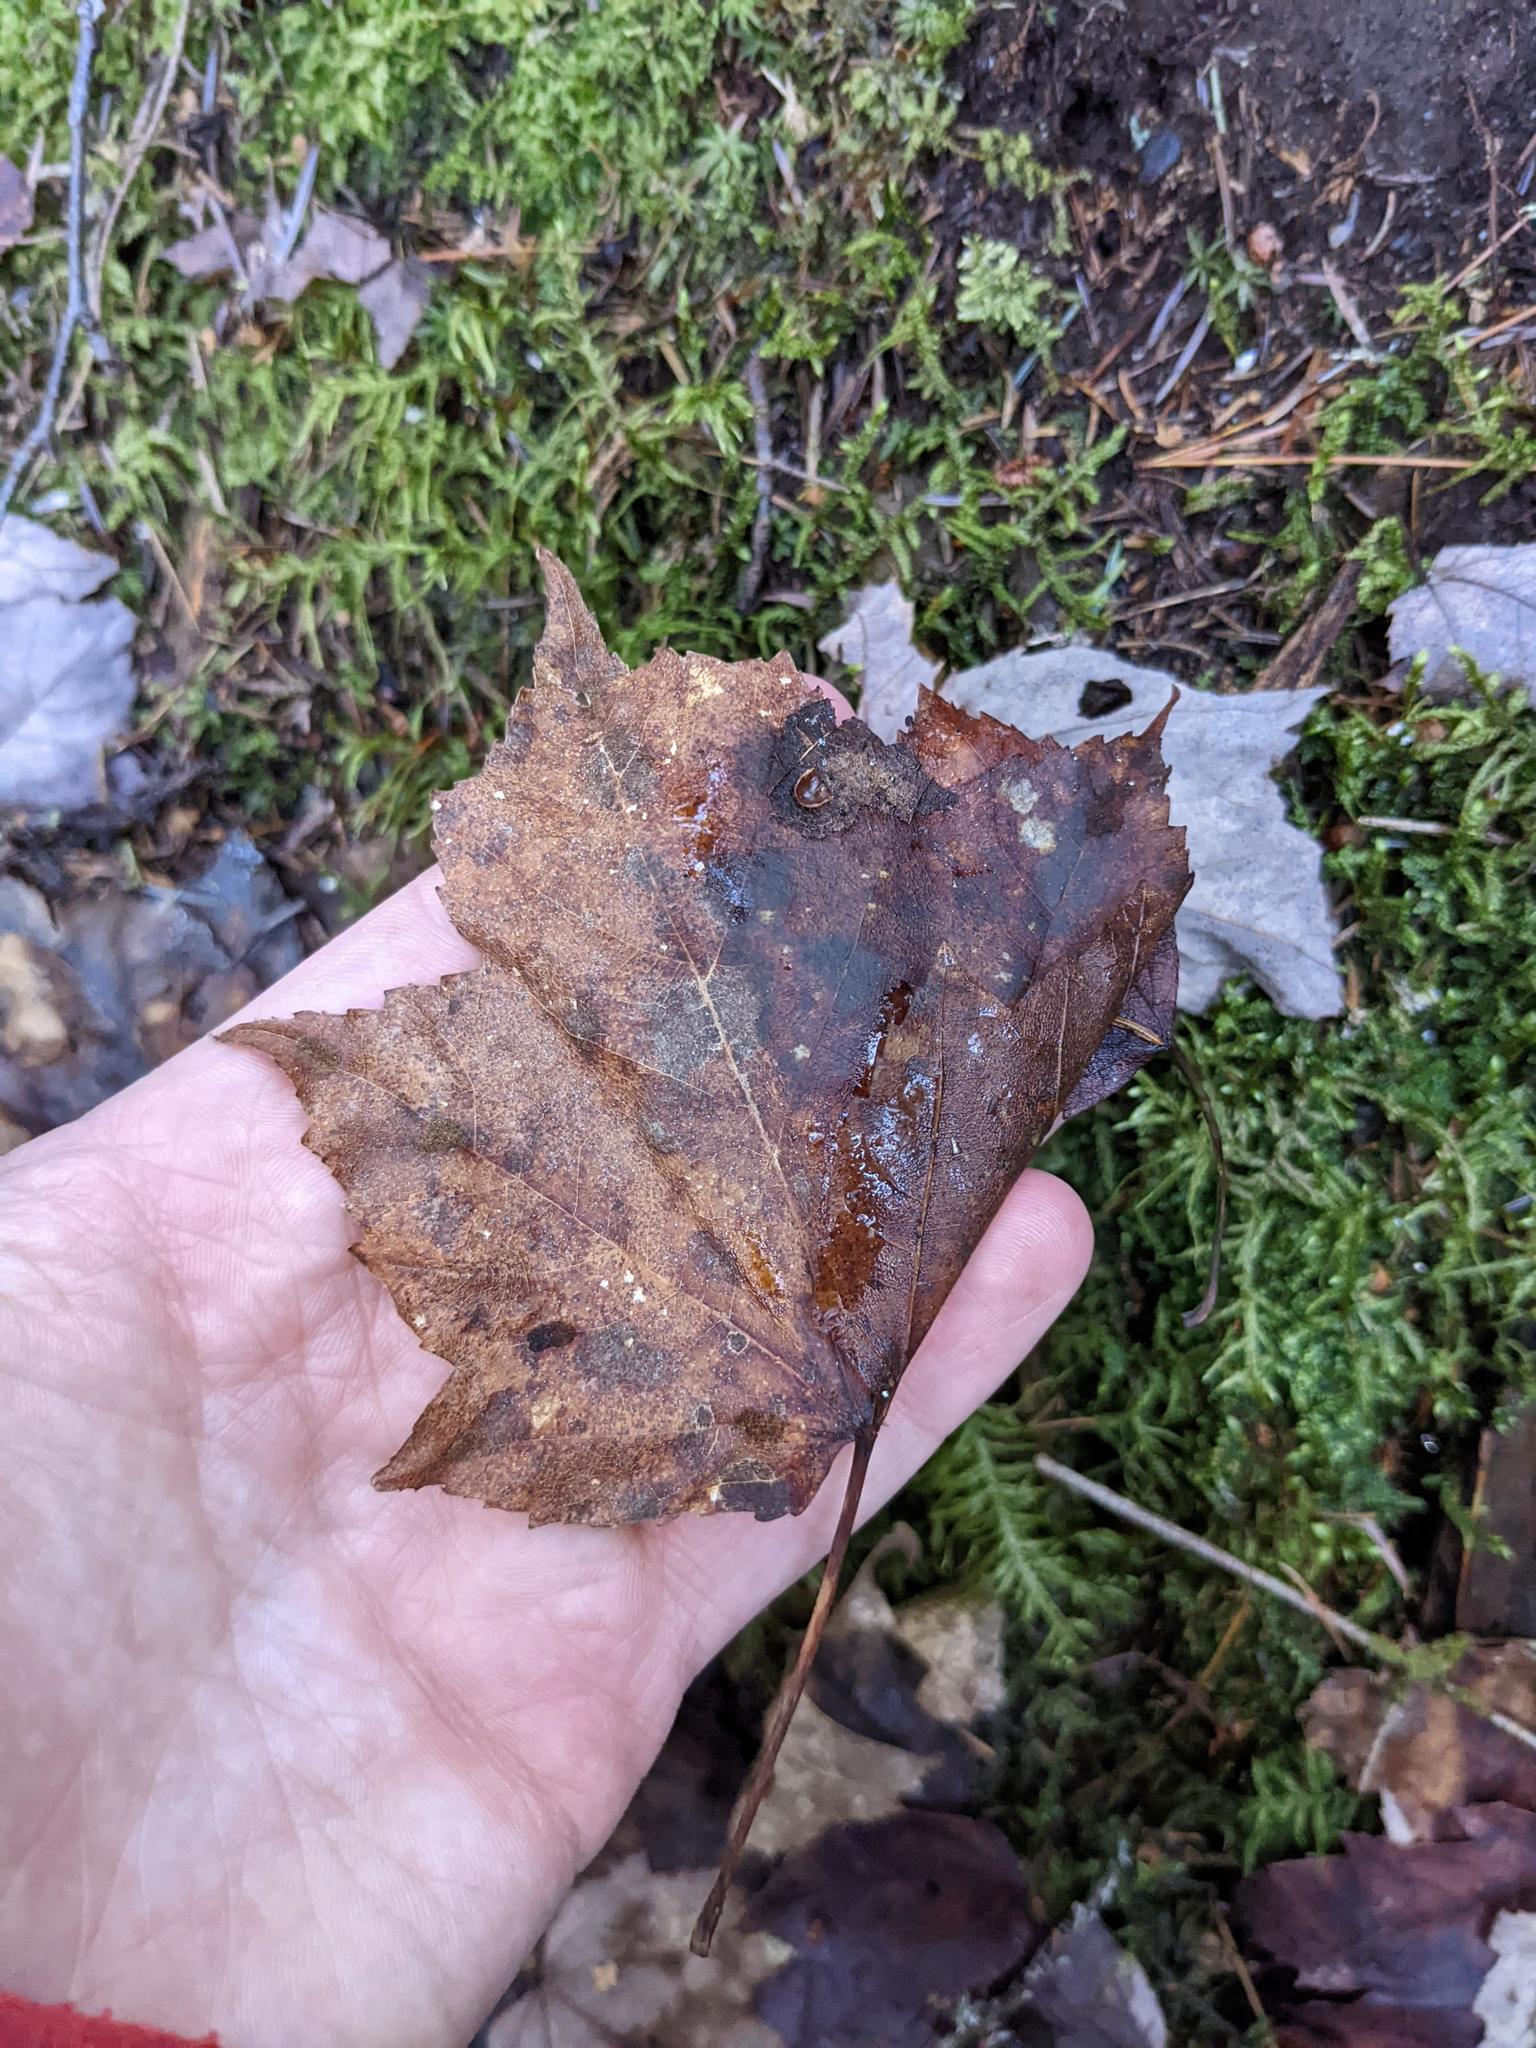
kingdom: Plantae
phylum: Tracheophyta
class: Magnoliopsida
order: Sapindales
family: Sapindaceae
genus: Acer
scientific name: Acer rubrum
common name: Red maple
